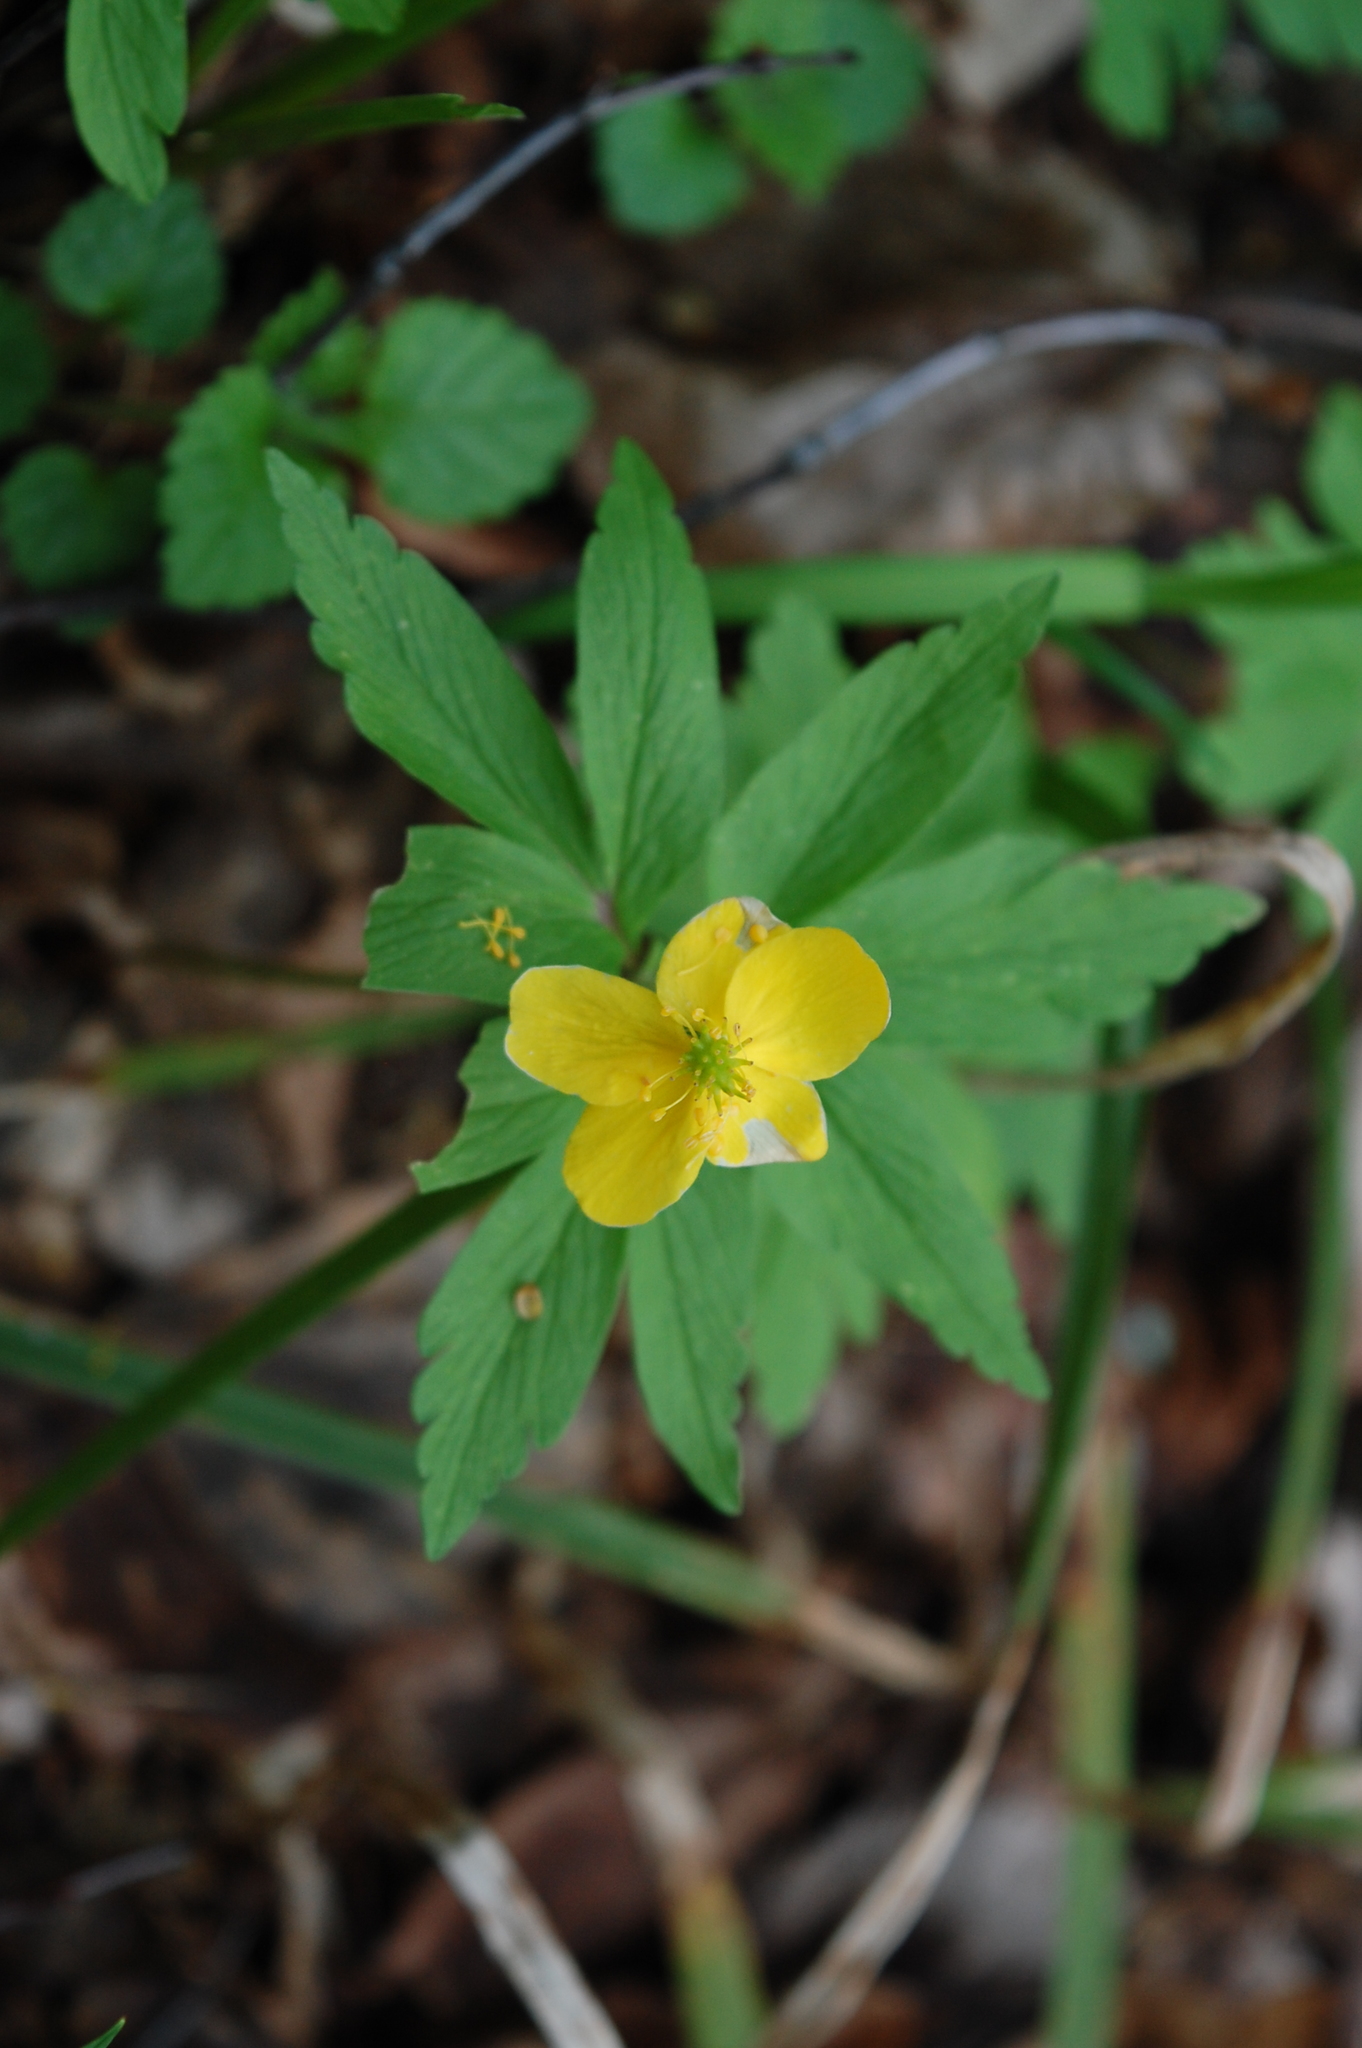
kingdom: Plantae
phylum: Tracheophyta
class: Magnoliopsida
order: Ranunculales
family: Ranunculaceae
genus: Anemone
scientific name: Anemone ranunculoides
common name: Yellow anemone
